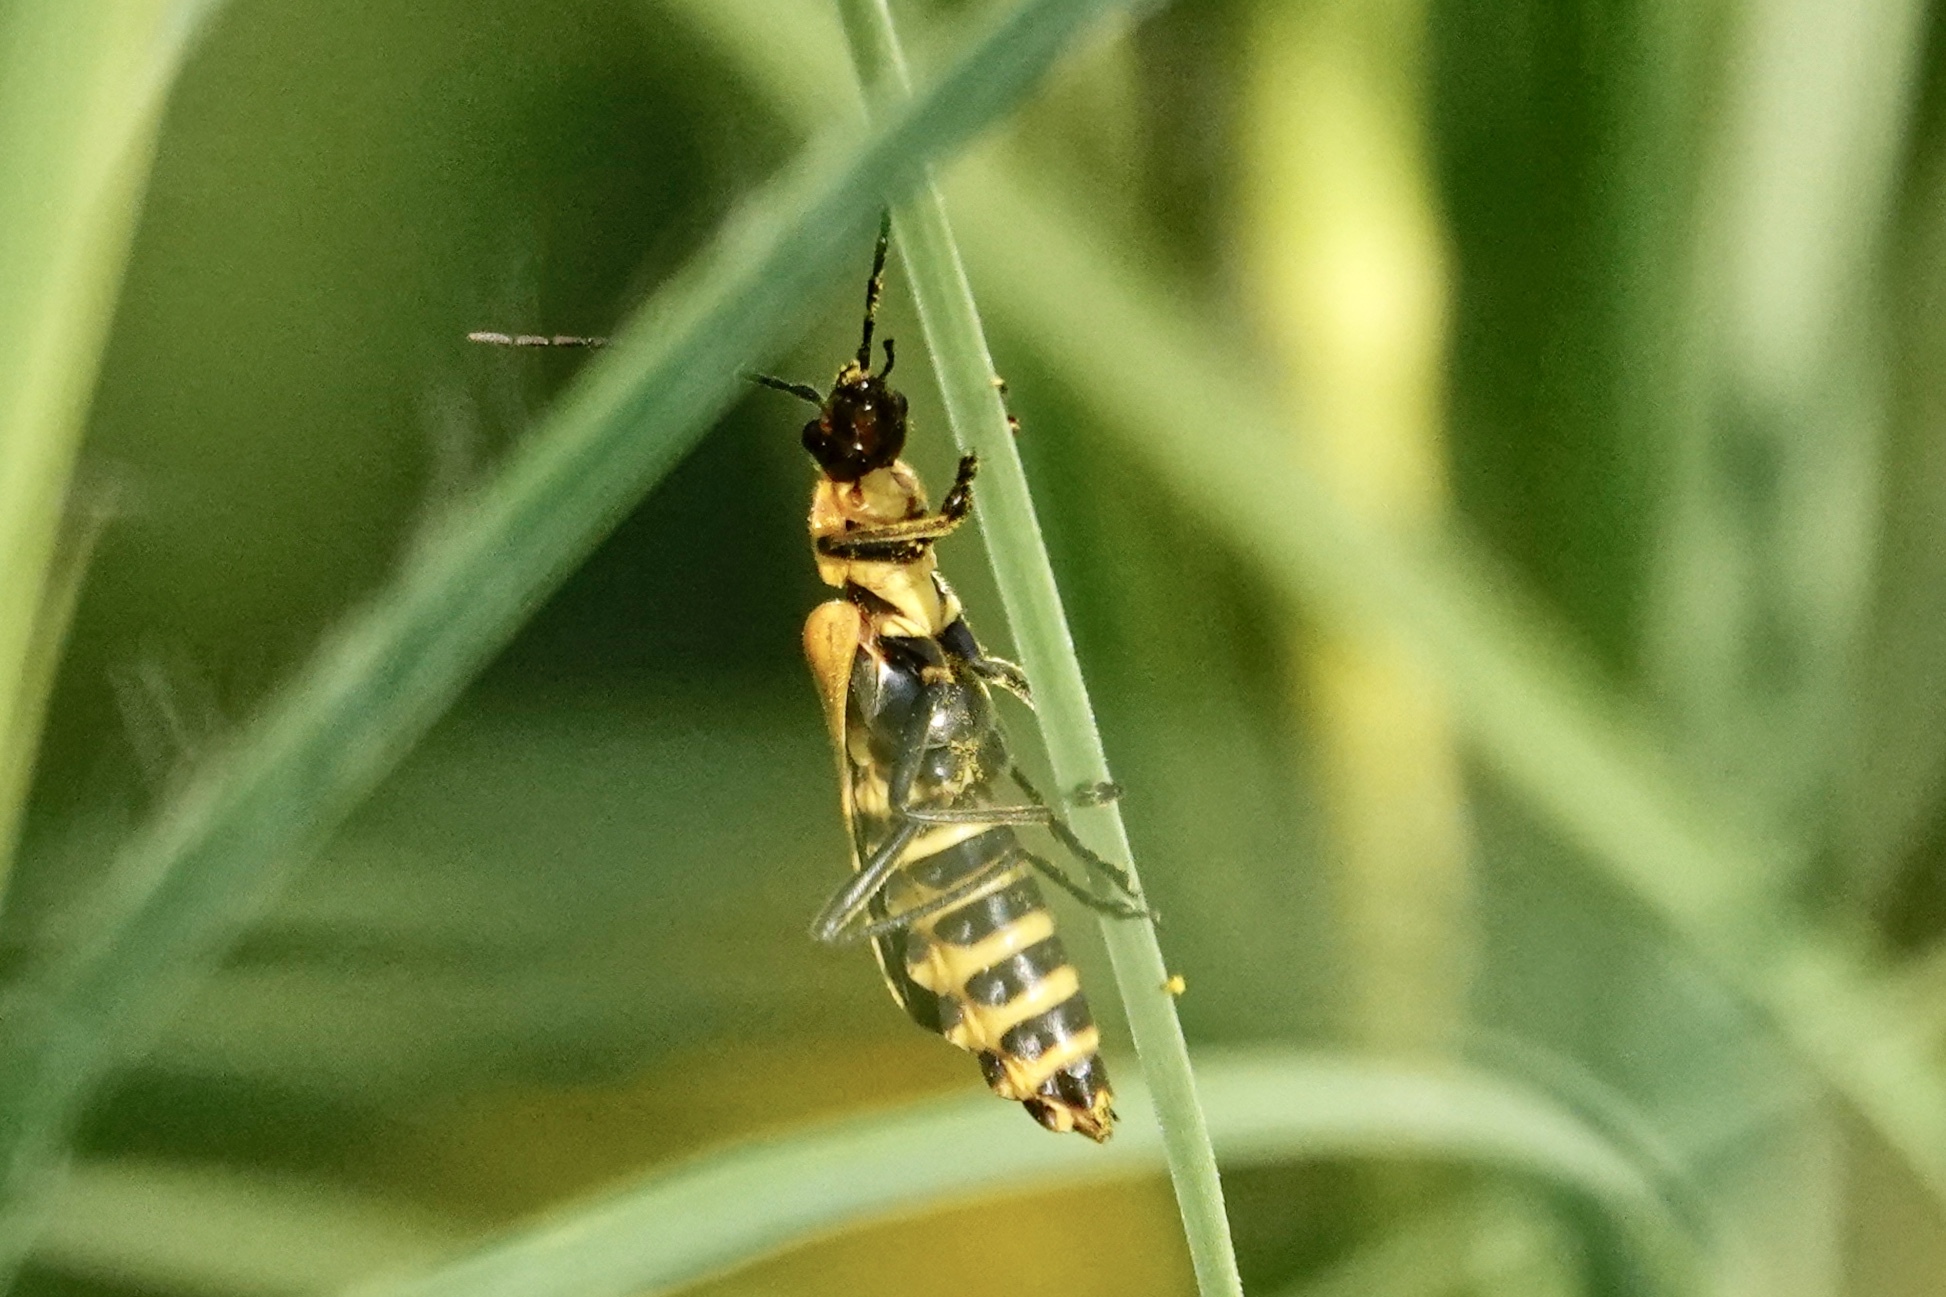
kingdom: Animalia
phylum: Arthropoda
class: Insecta
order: Coleoptera
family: Cantharidae
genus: Chauliognathus
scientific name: Chauliognathus pensylvanicus
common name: Goldenrod soldier beetle
